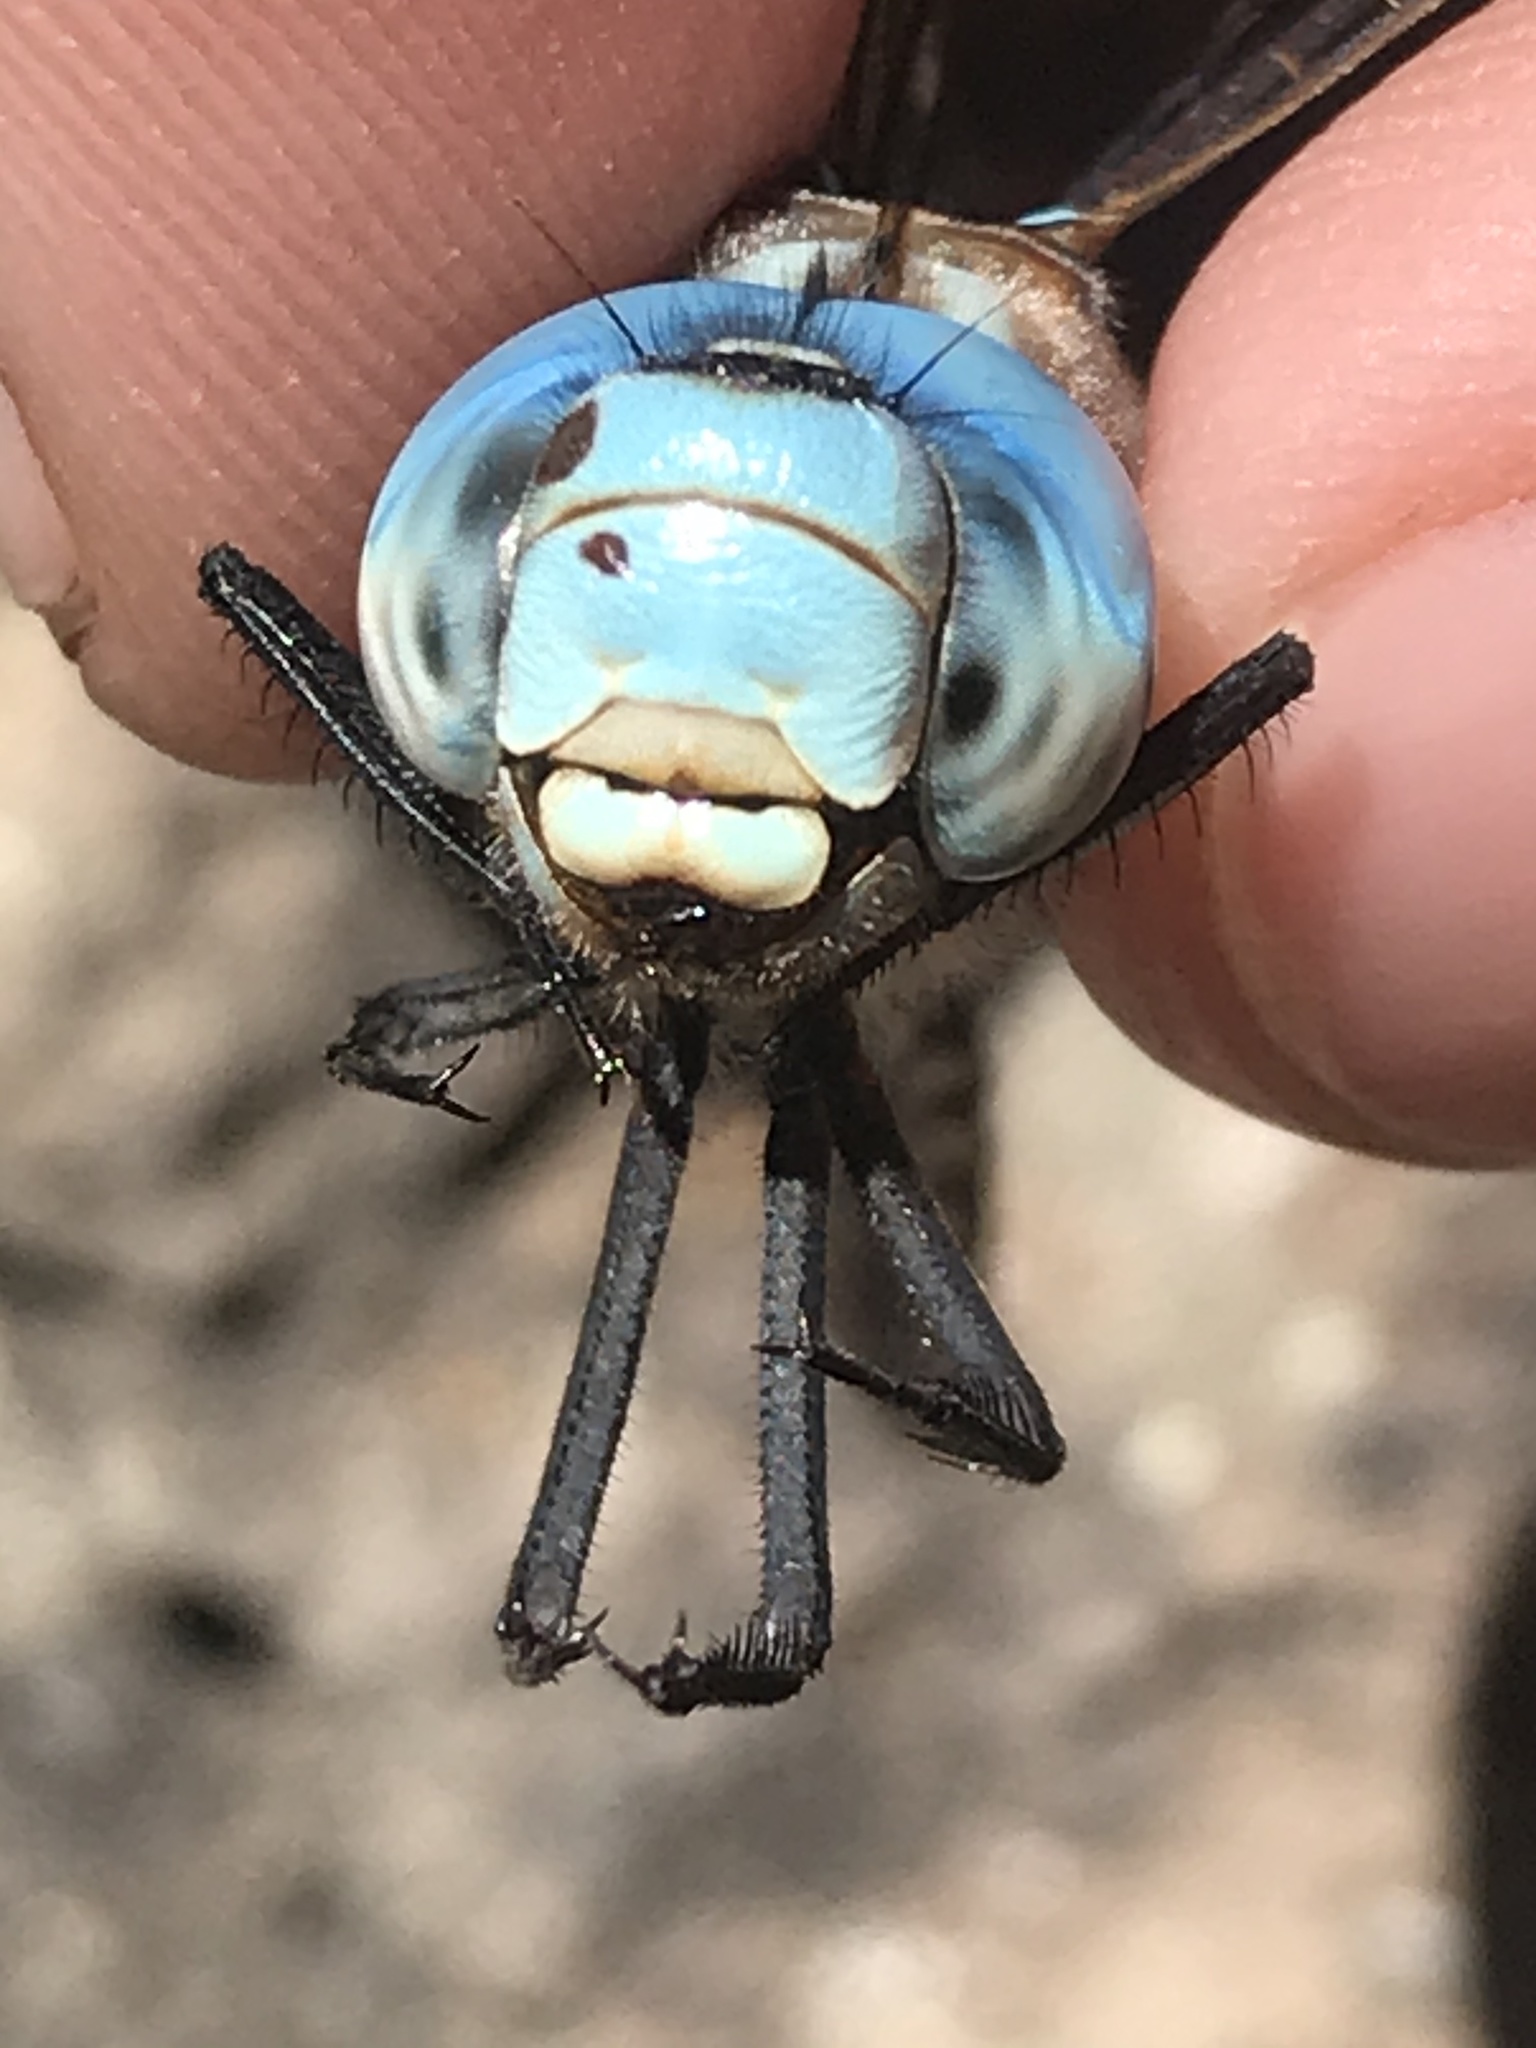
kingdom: Animalia
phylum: Arthropoda
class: Insecta
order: Odonata
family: Aeshnidae
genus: Rhionaeschna
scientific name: Rhionaeschna multicolor
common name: Blue-eyed darner
